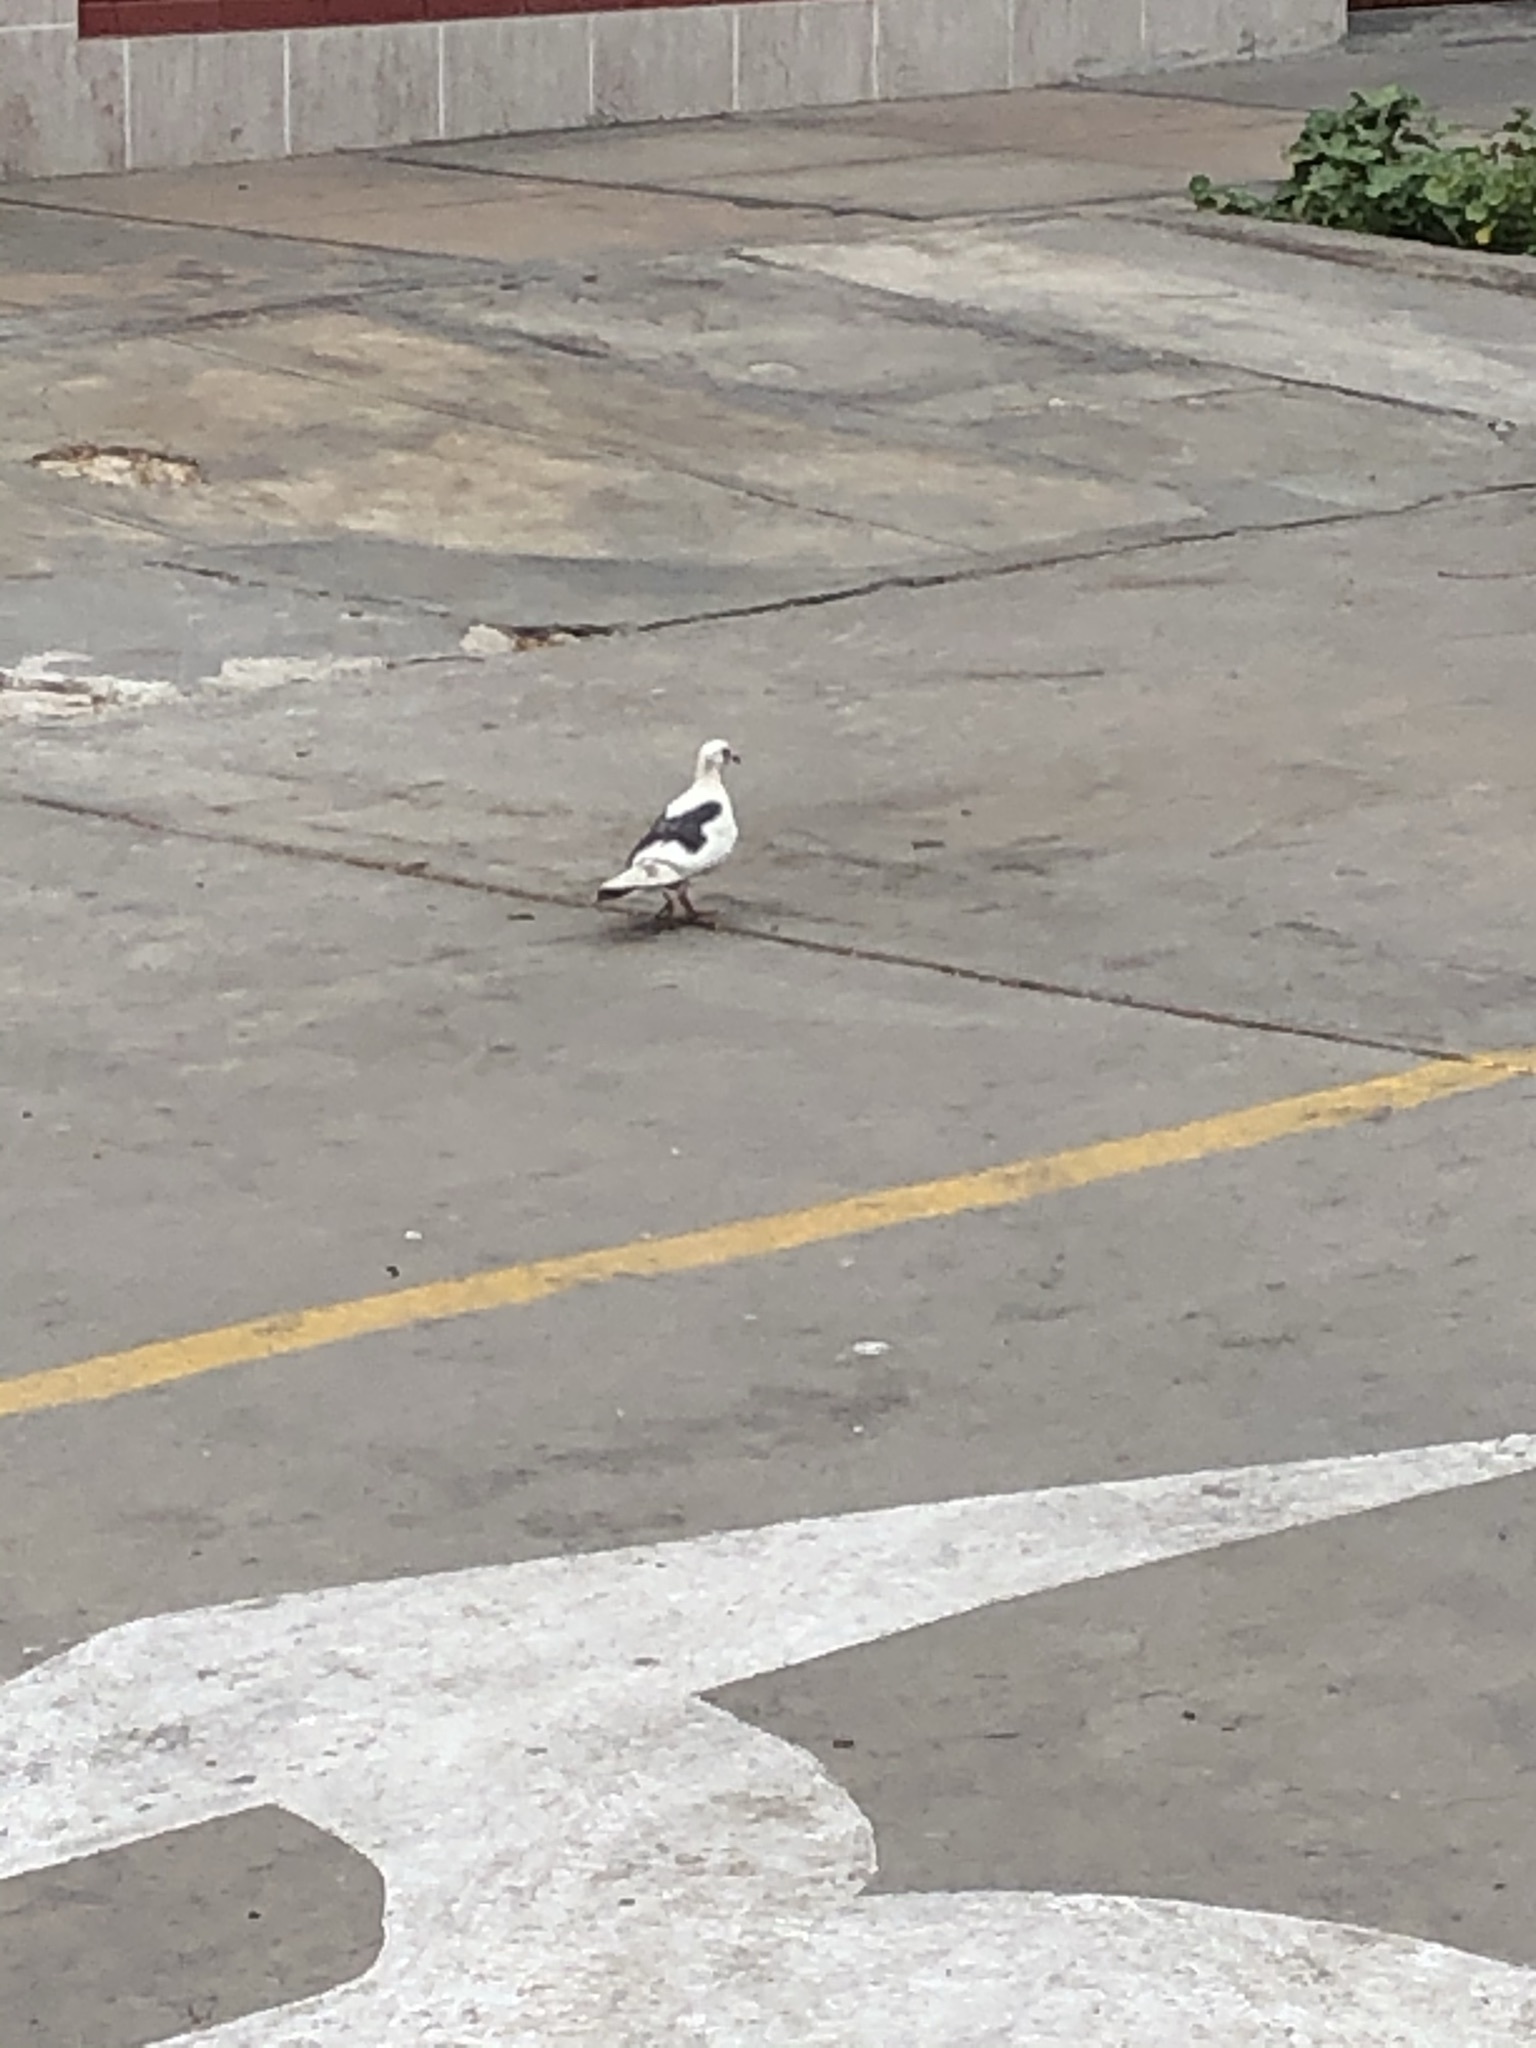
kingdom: Animalia
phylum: Chordata
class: Aves
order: Columbiformes
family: Columbidae
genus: Columba
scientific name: Columba livia
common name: Rock pigeon
